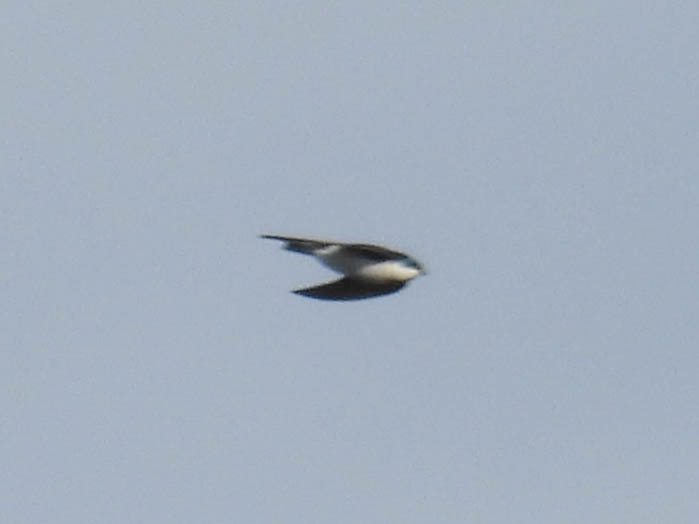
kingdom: Animalia
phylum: Chordata
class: Aves
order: Passeriformes
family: Hirundinidae
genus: Tachycineta
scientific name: Tachycineta bicolor
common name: Tree swallow
